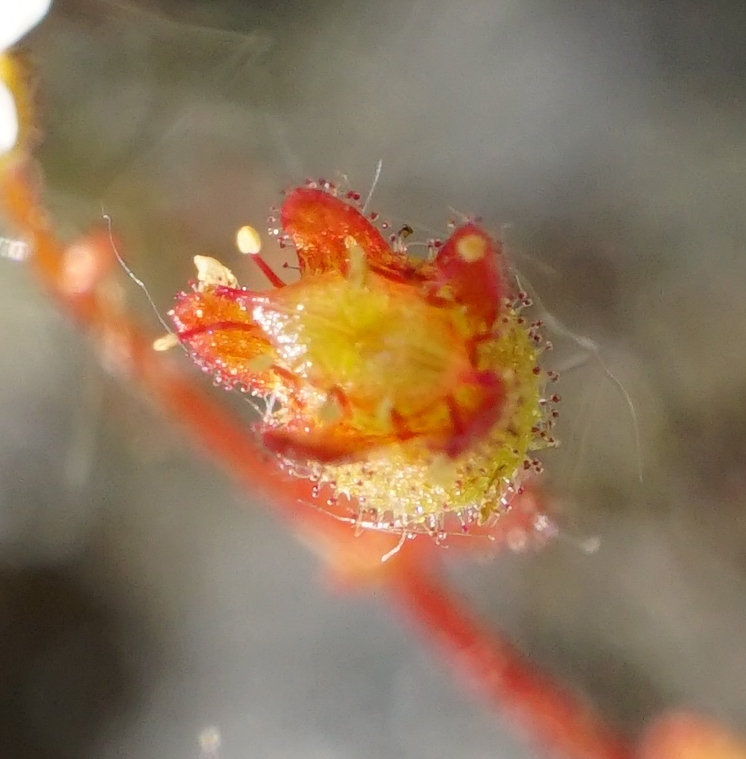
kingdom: Plantae
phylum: Tracheophyta
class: Magnoliopsida
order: Saxifragales
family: Saxifragaceae
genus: Saxifraga
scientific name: Saxifraga tridactylites
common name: Rue-leaved saxifrage
